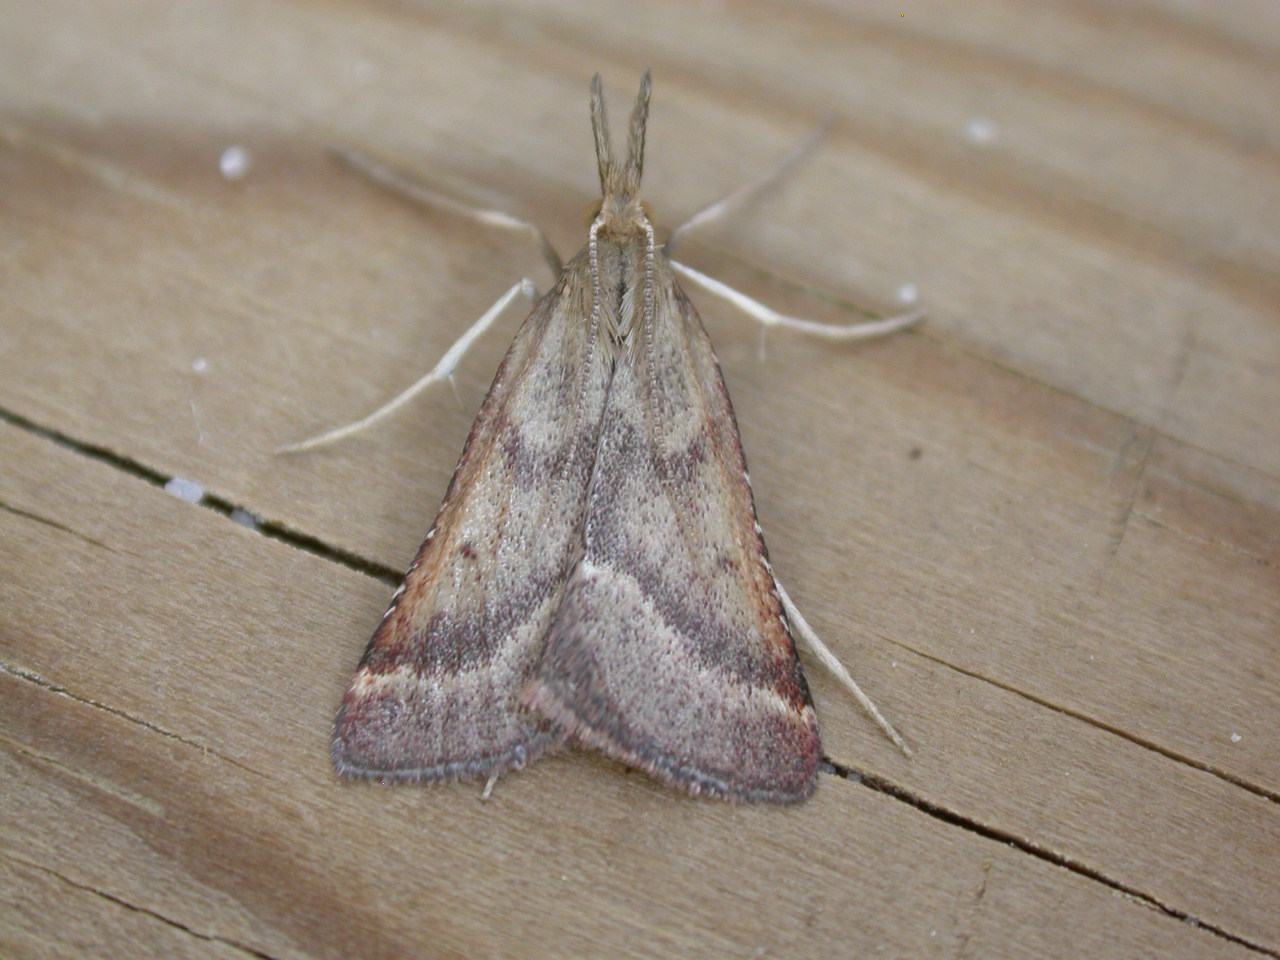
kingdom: Animalia
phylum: Arthropoda
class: Insecta
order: Lepidoptera
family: Pyralidae
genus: Synaphe
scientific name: Synaphe punctalis
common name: Long-legged tabby
